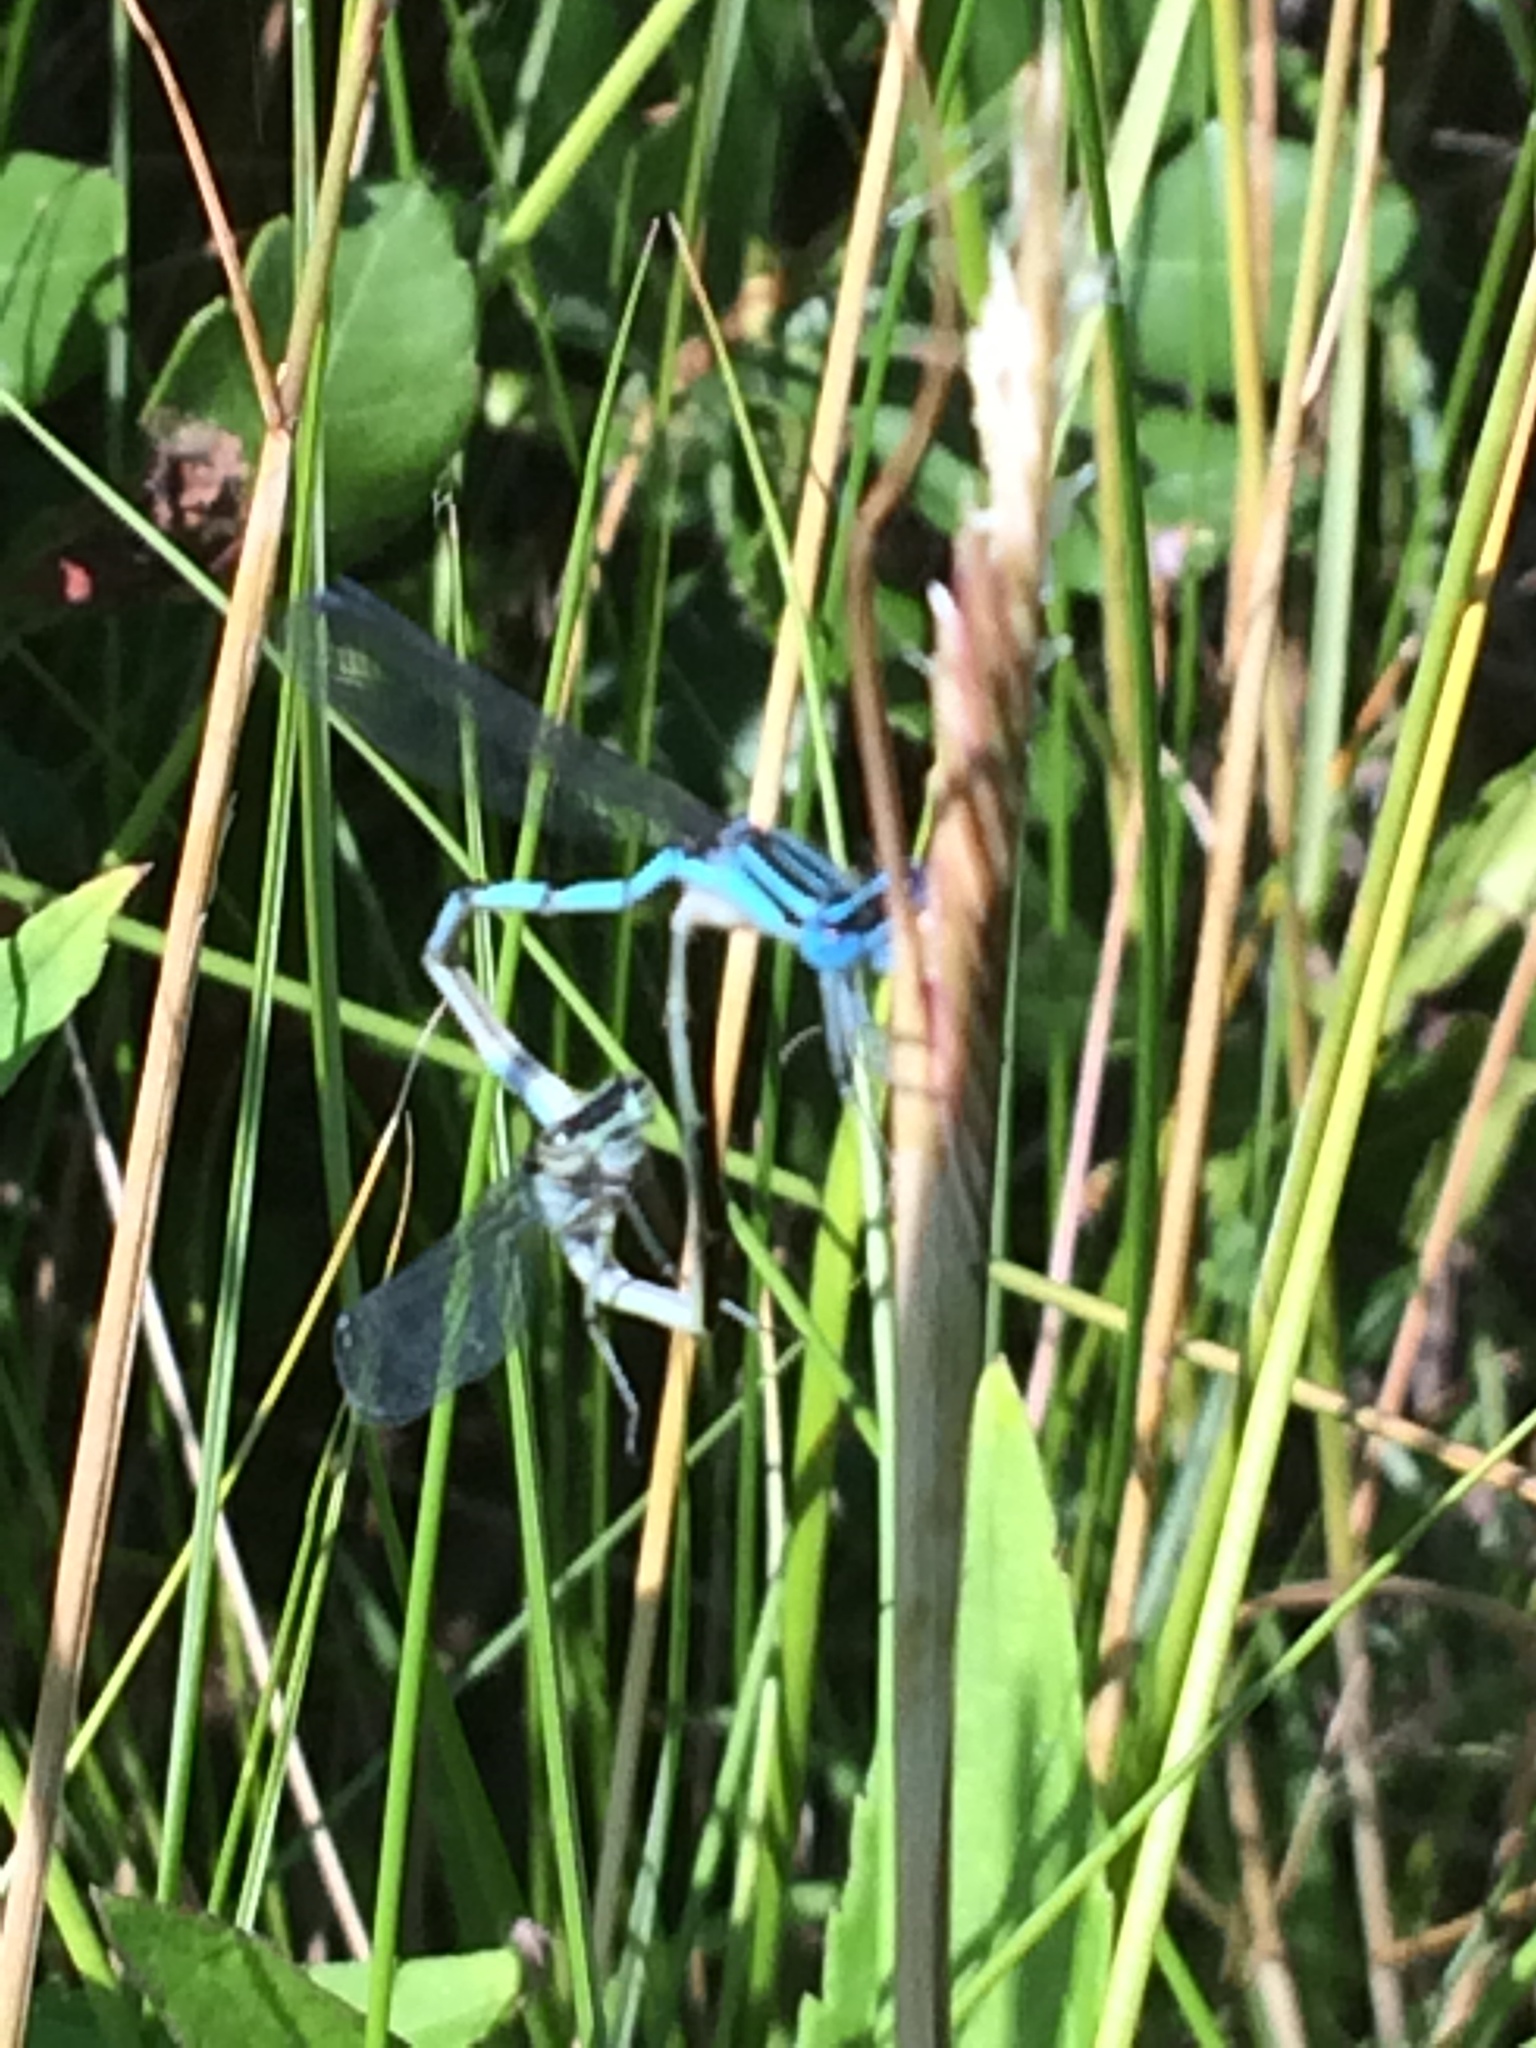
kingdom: Animalia
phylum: Arthropoda
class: Insecta
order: Odonata
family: Coenagrionidae
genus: Enallagma
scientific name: Enallagma durum
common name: Big bluet
